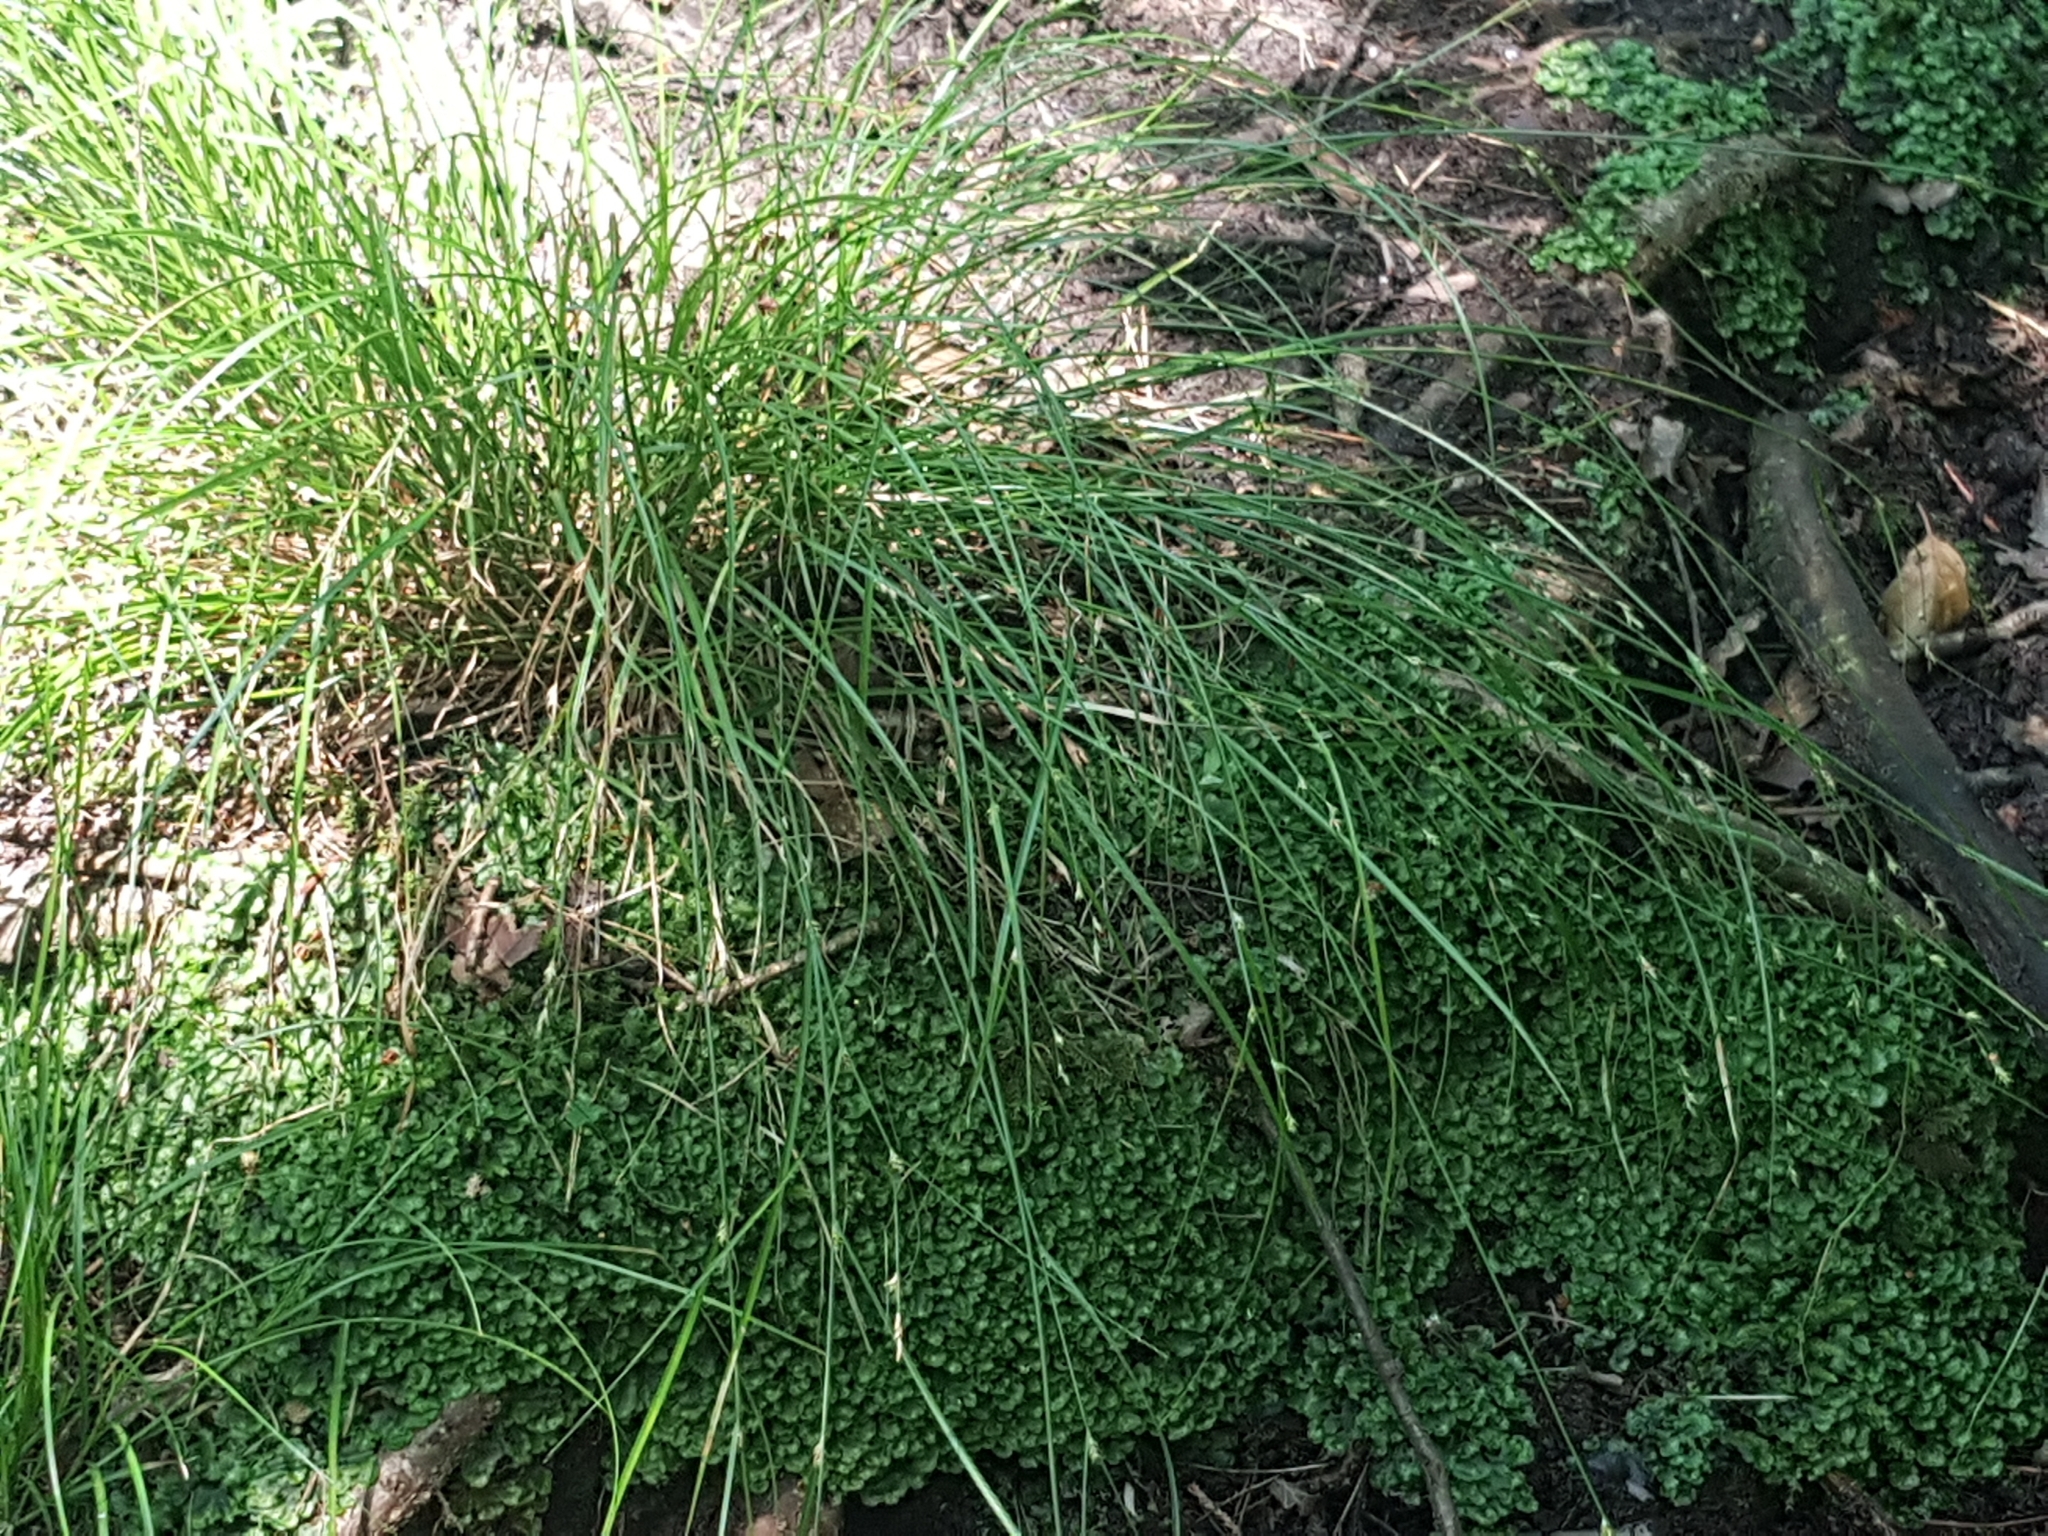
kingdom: Plantae
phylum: Tracheophyta
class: Liliopsida
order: Poales
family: Cyperaceae
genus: Carex
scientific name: Carex remota
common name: Remote sedge
